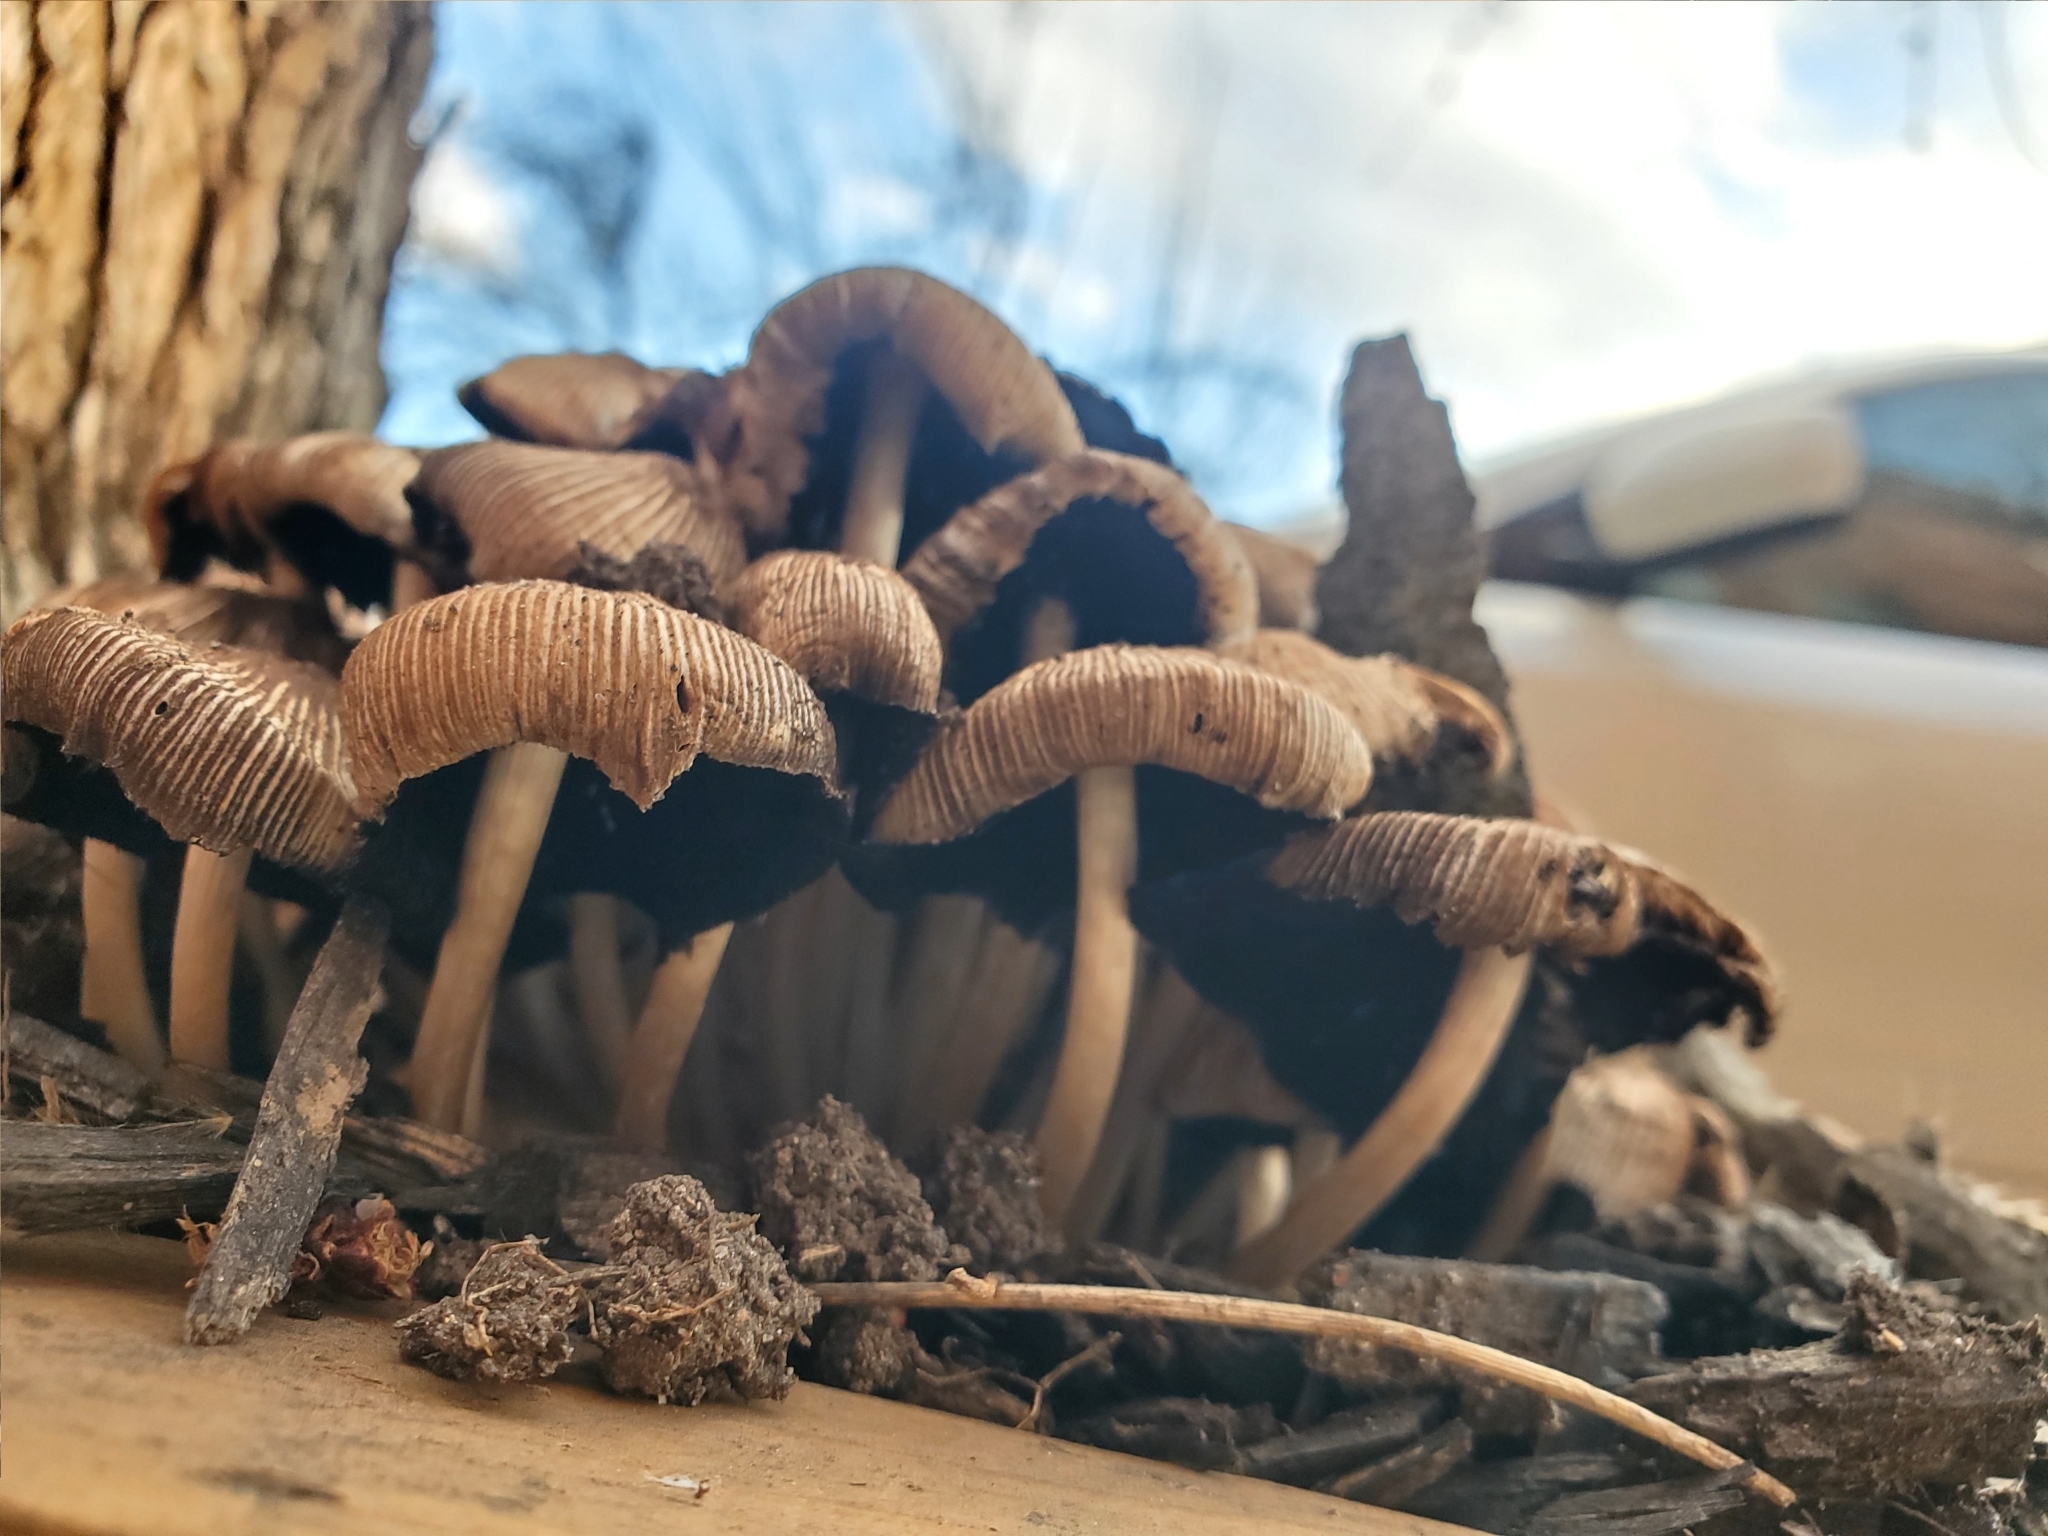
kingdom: Fungi
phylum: Basidiomycota
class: Agaricomycetes
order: Agaricales
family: Psathyrellaceae
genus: Coprinellus
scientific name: Coprinellus micaceus
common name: Glistening ink-cap
